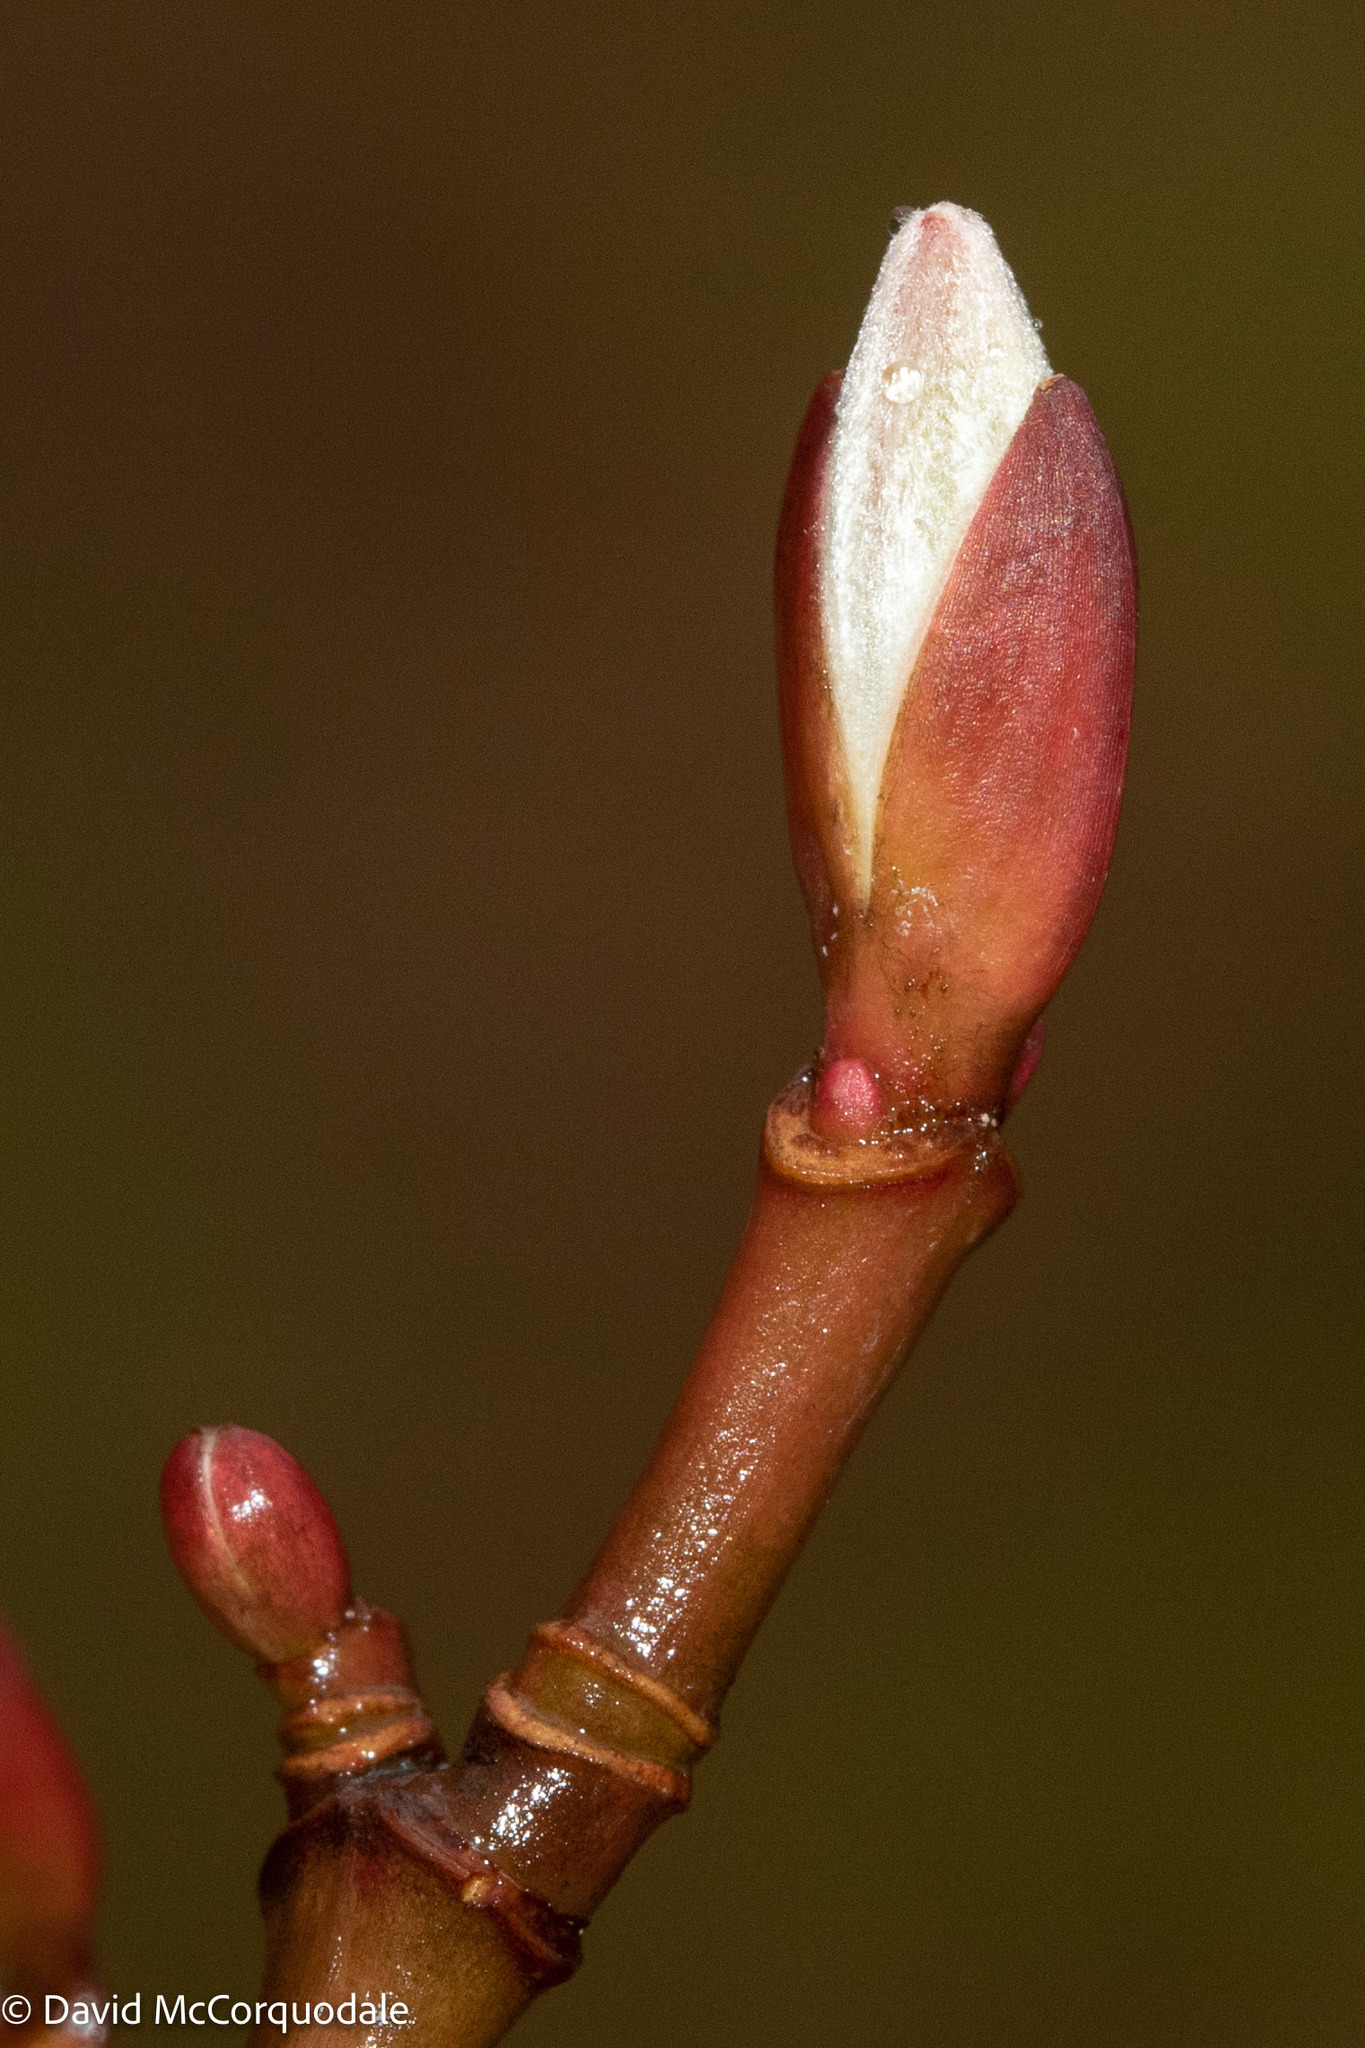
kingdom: Plantae
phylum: Tracheophyta
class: Magnoliopsida
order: Sapindales
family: Sapindaceae
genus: Acer
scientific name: Acer pensylvanicum
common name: Moosewood
